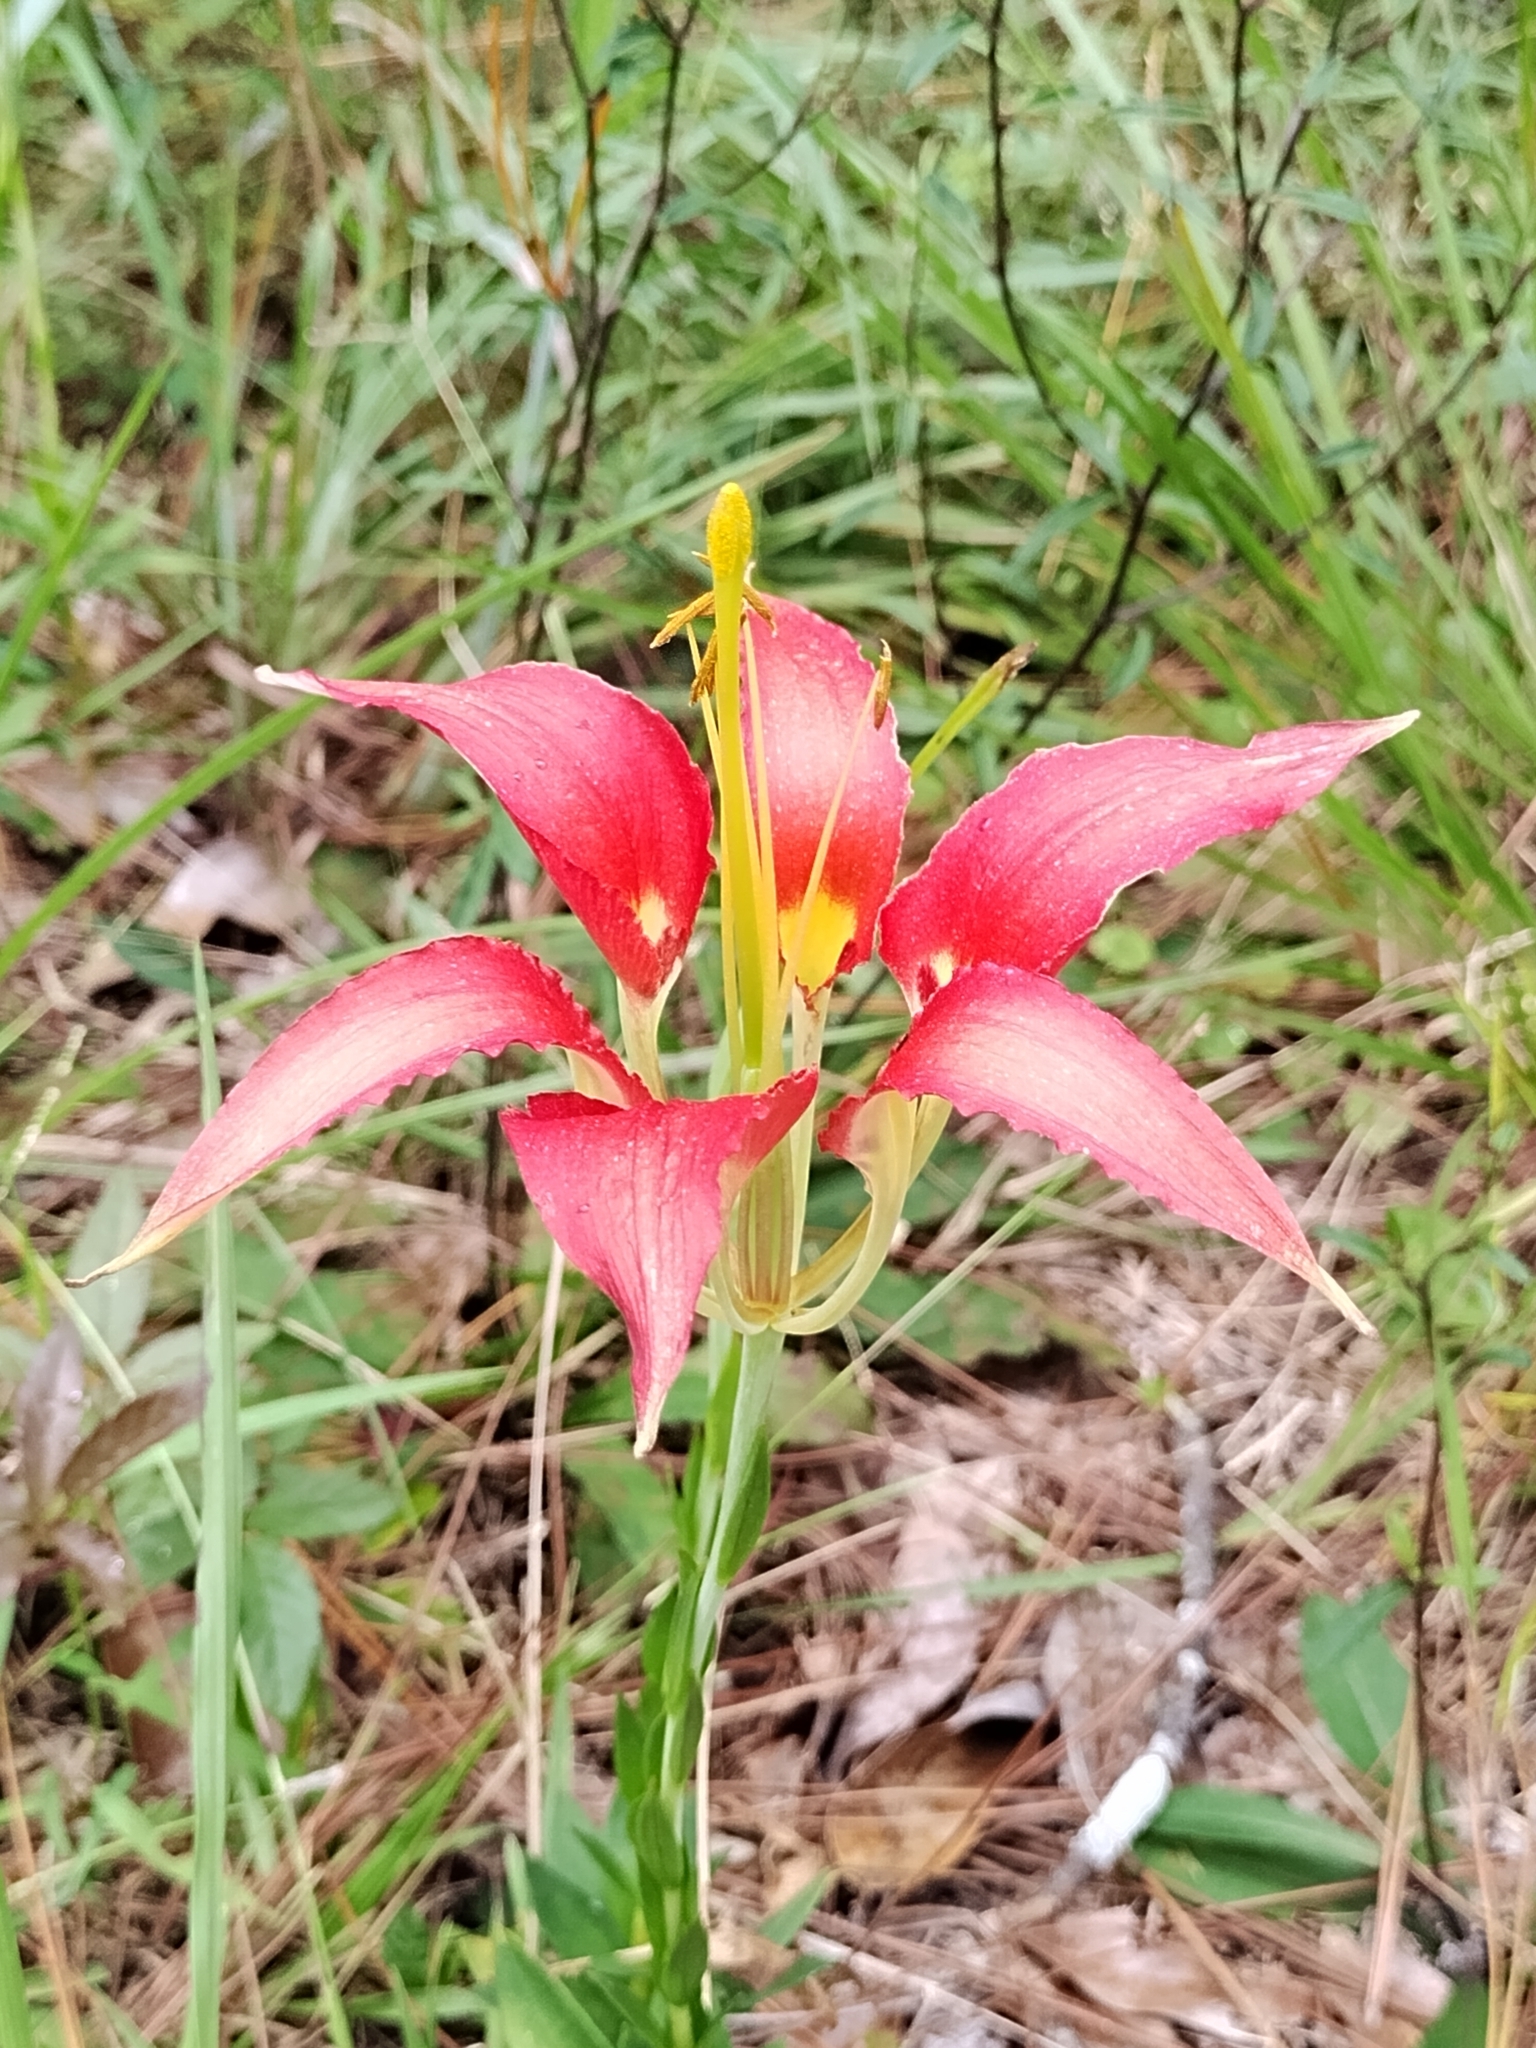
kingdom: Plantae
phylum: Tracheophyta
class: Liliopsida
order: Liliales
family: Liliaceae
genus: Lilium
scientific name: Lilium catesbaei
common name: Catesby's lily
